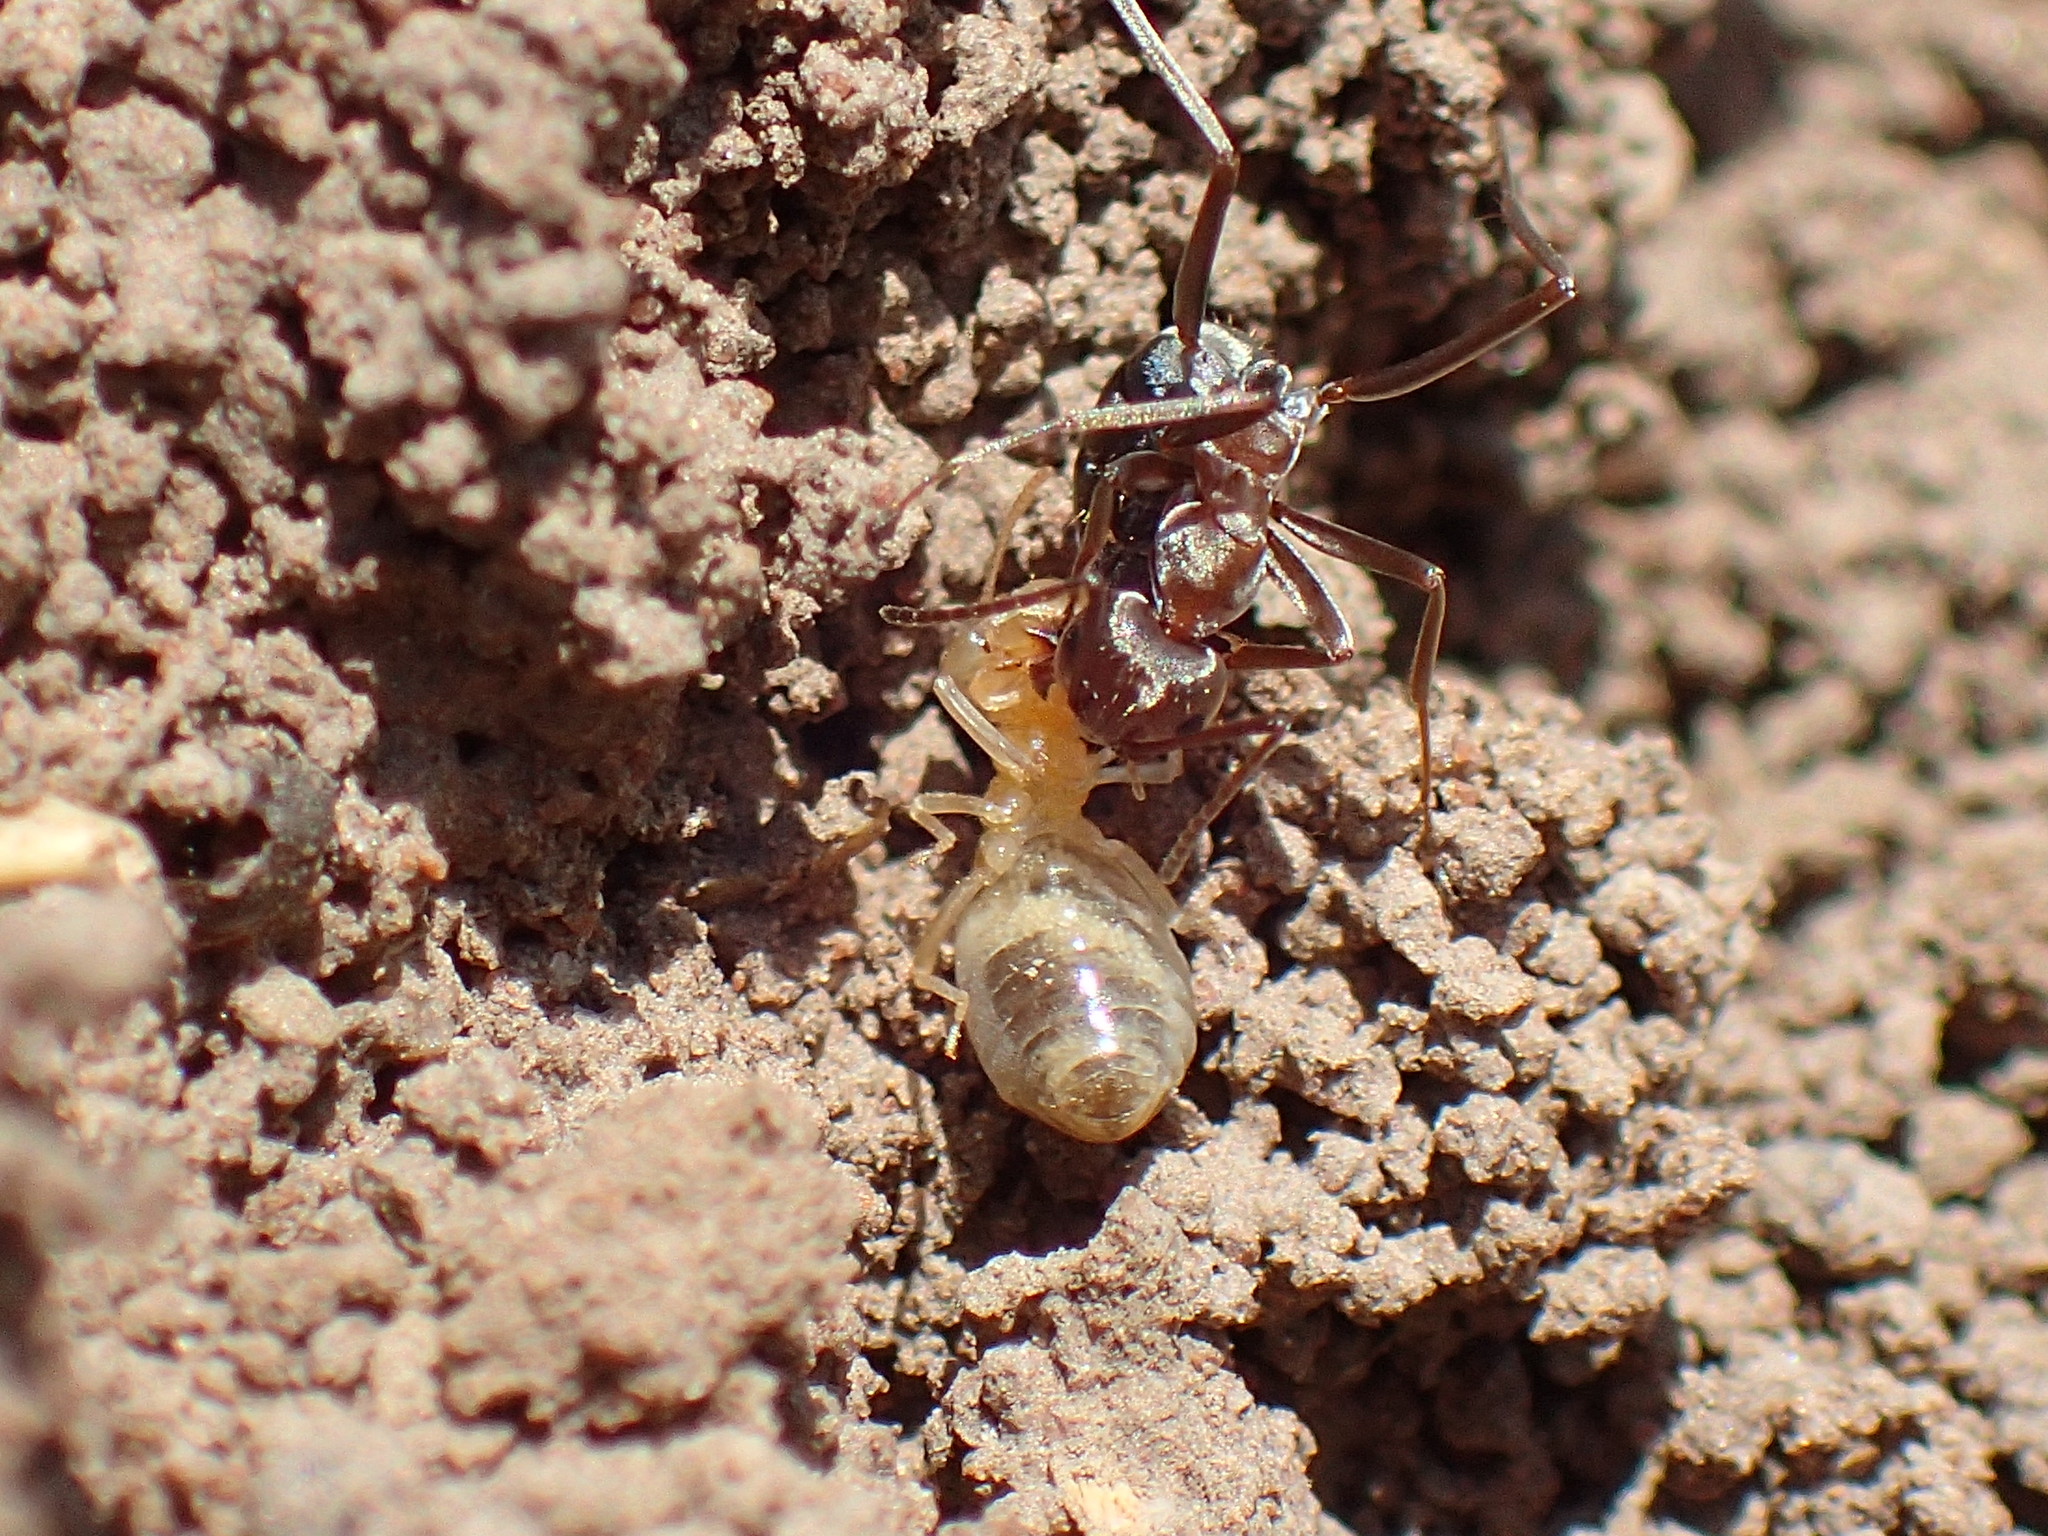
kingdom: Animalia
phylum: Arthropoda
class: Insecta
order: Hymenoptera
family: Formicidae
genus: Anoplolepis
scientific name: Anoplolepis custodiens
